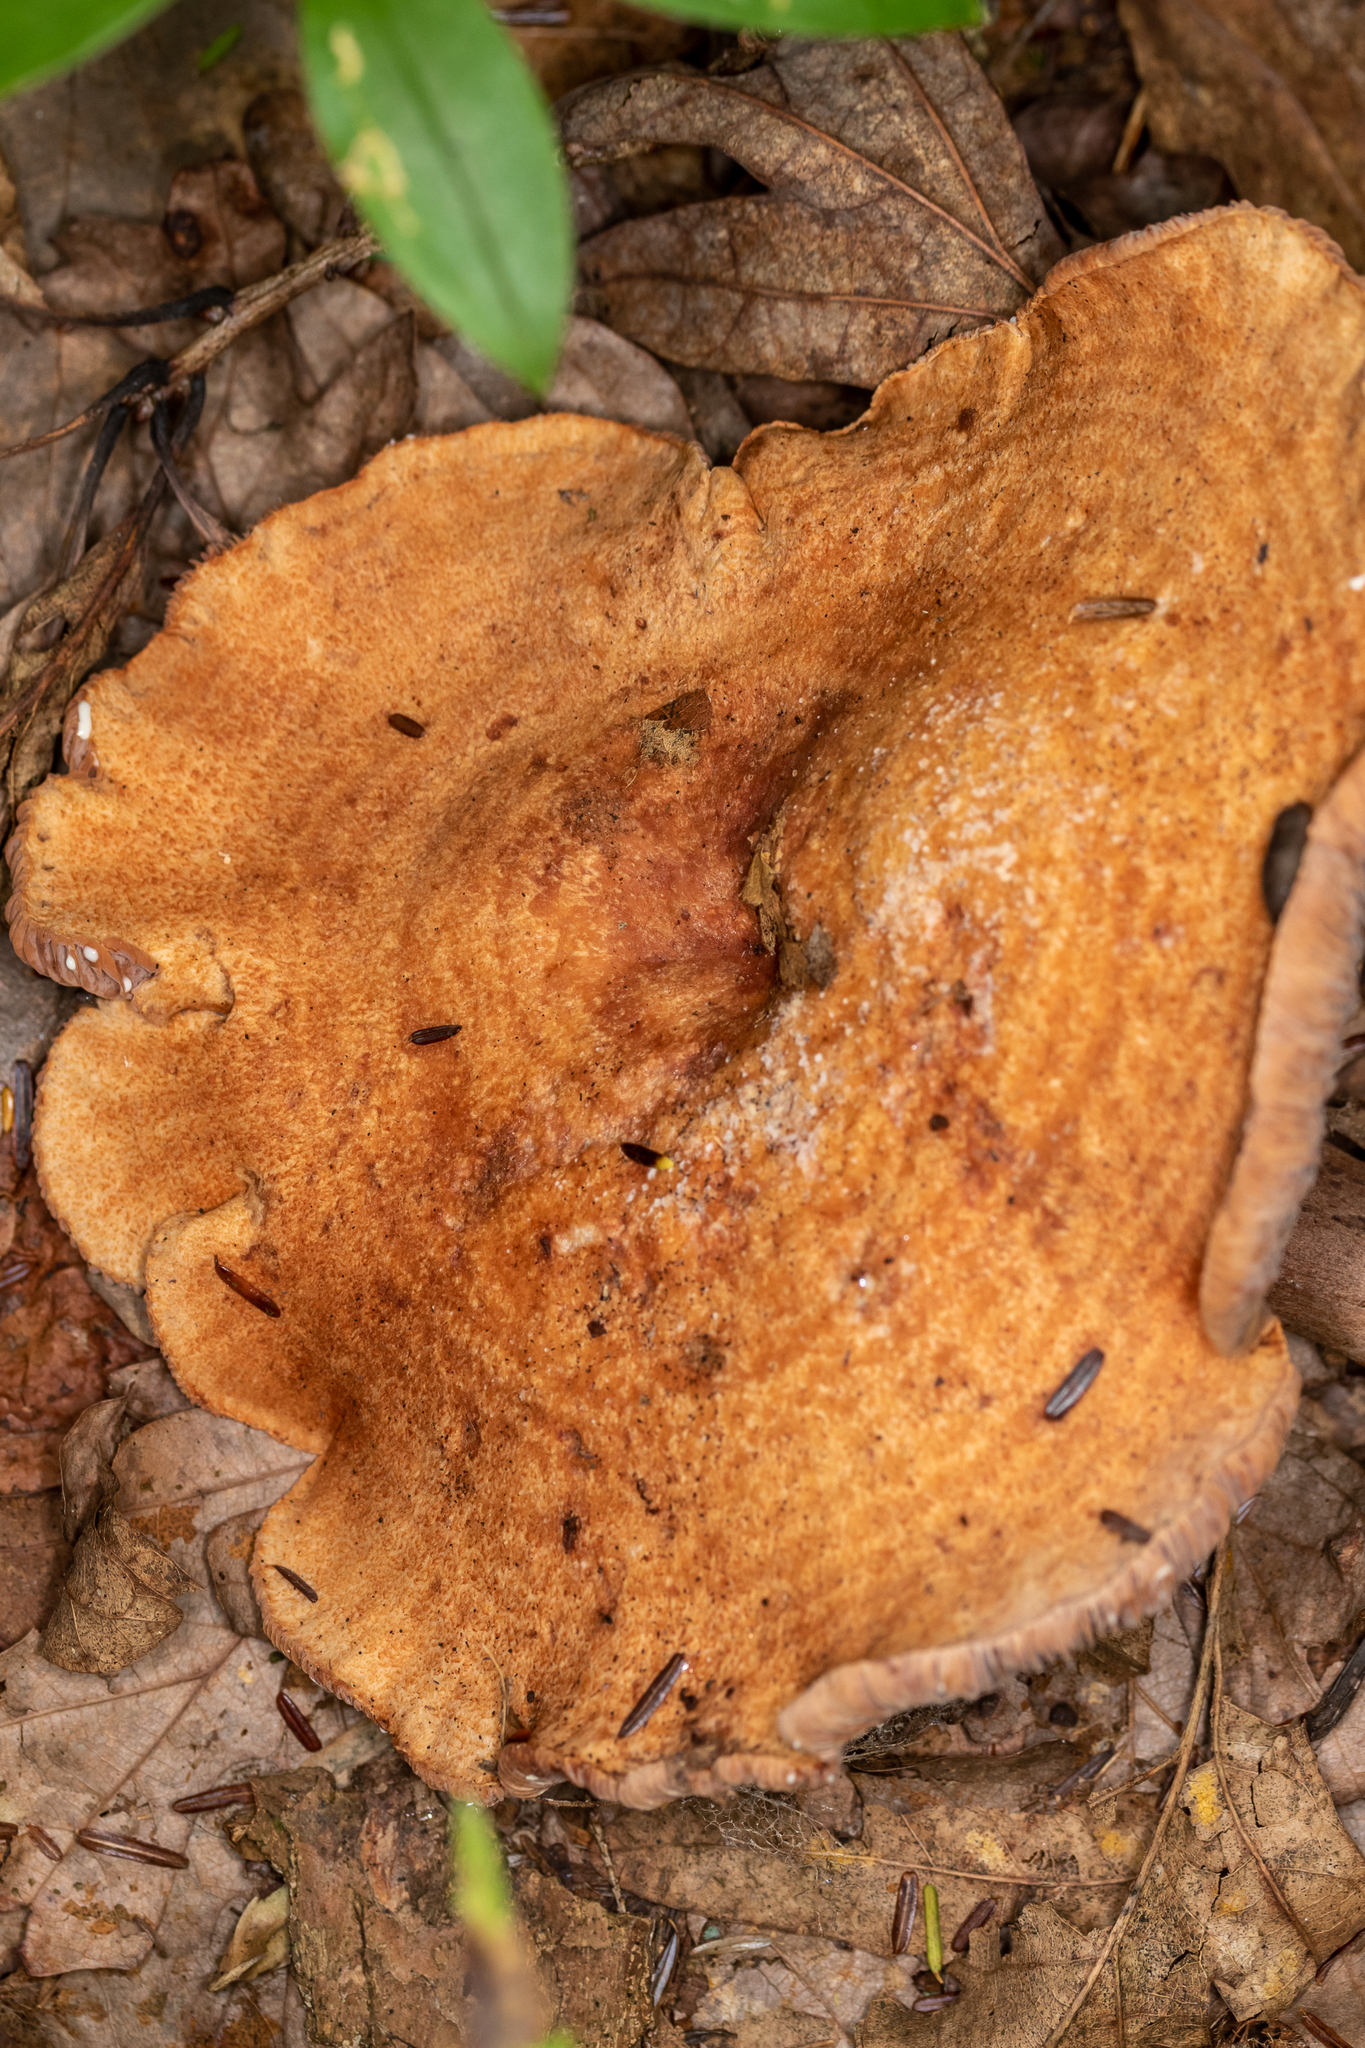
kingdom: Fungi
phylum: Basidiomycota
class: Agaricomycetes
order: Russulales
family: Russulaceae
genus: Lactarius
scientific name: Lactarius peckii
